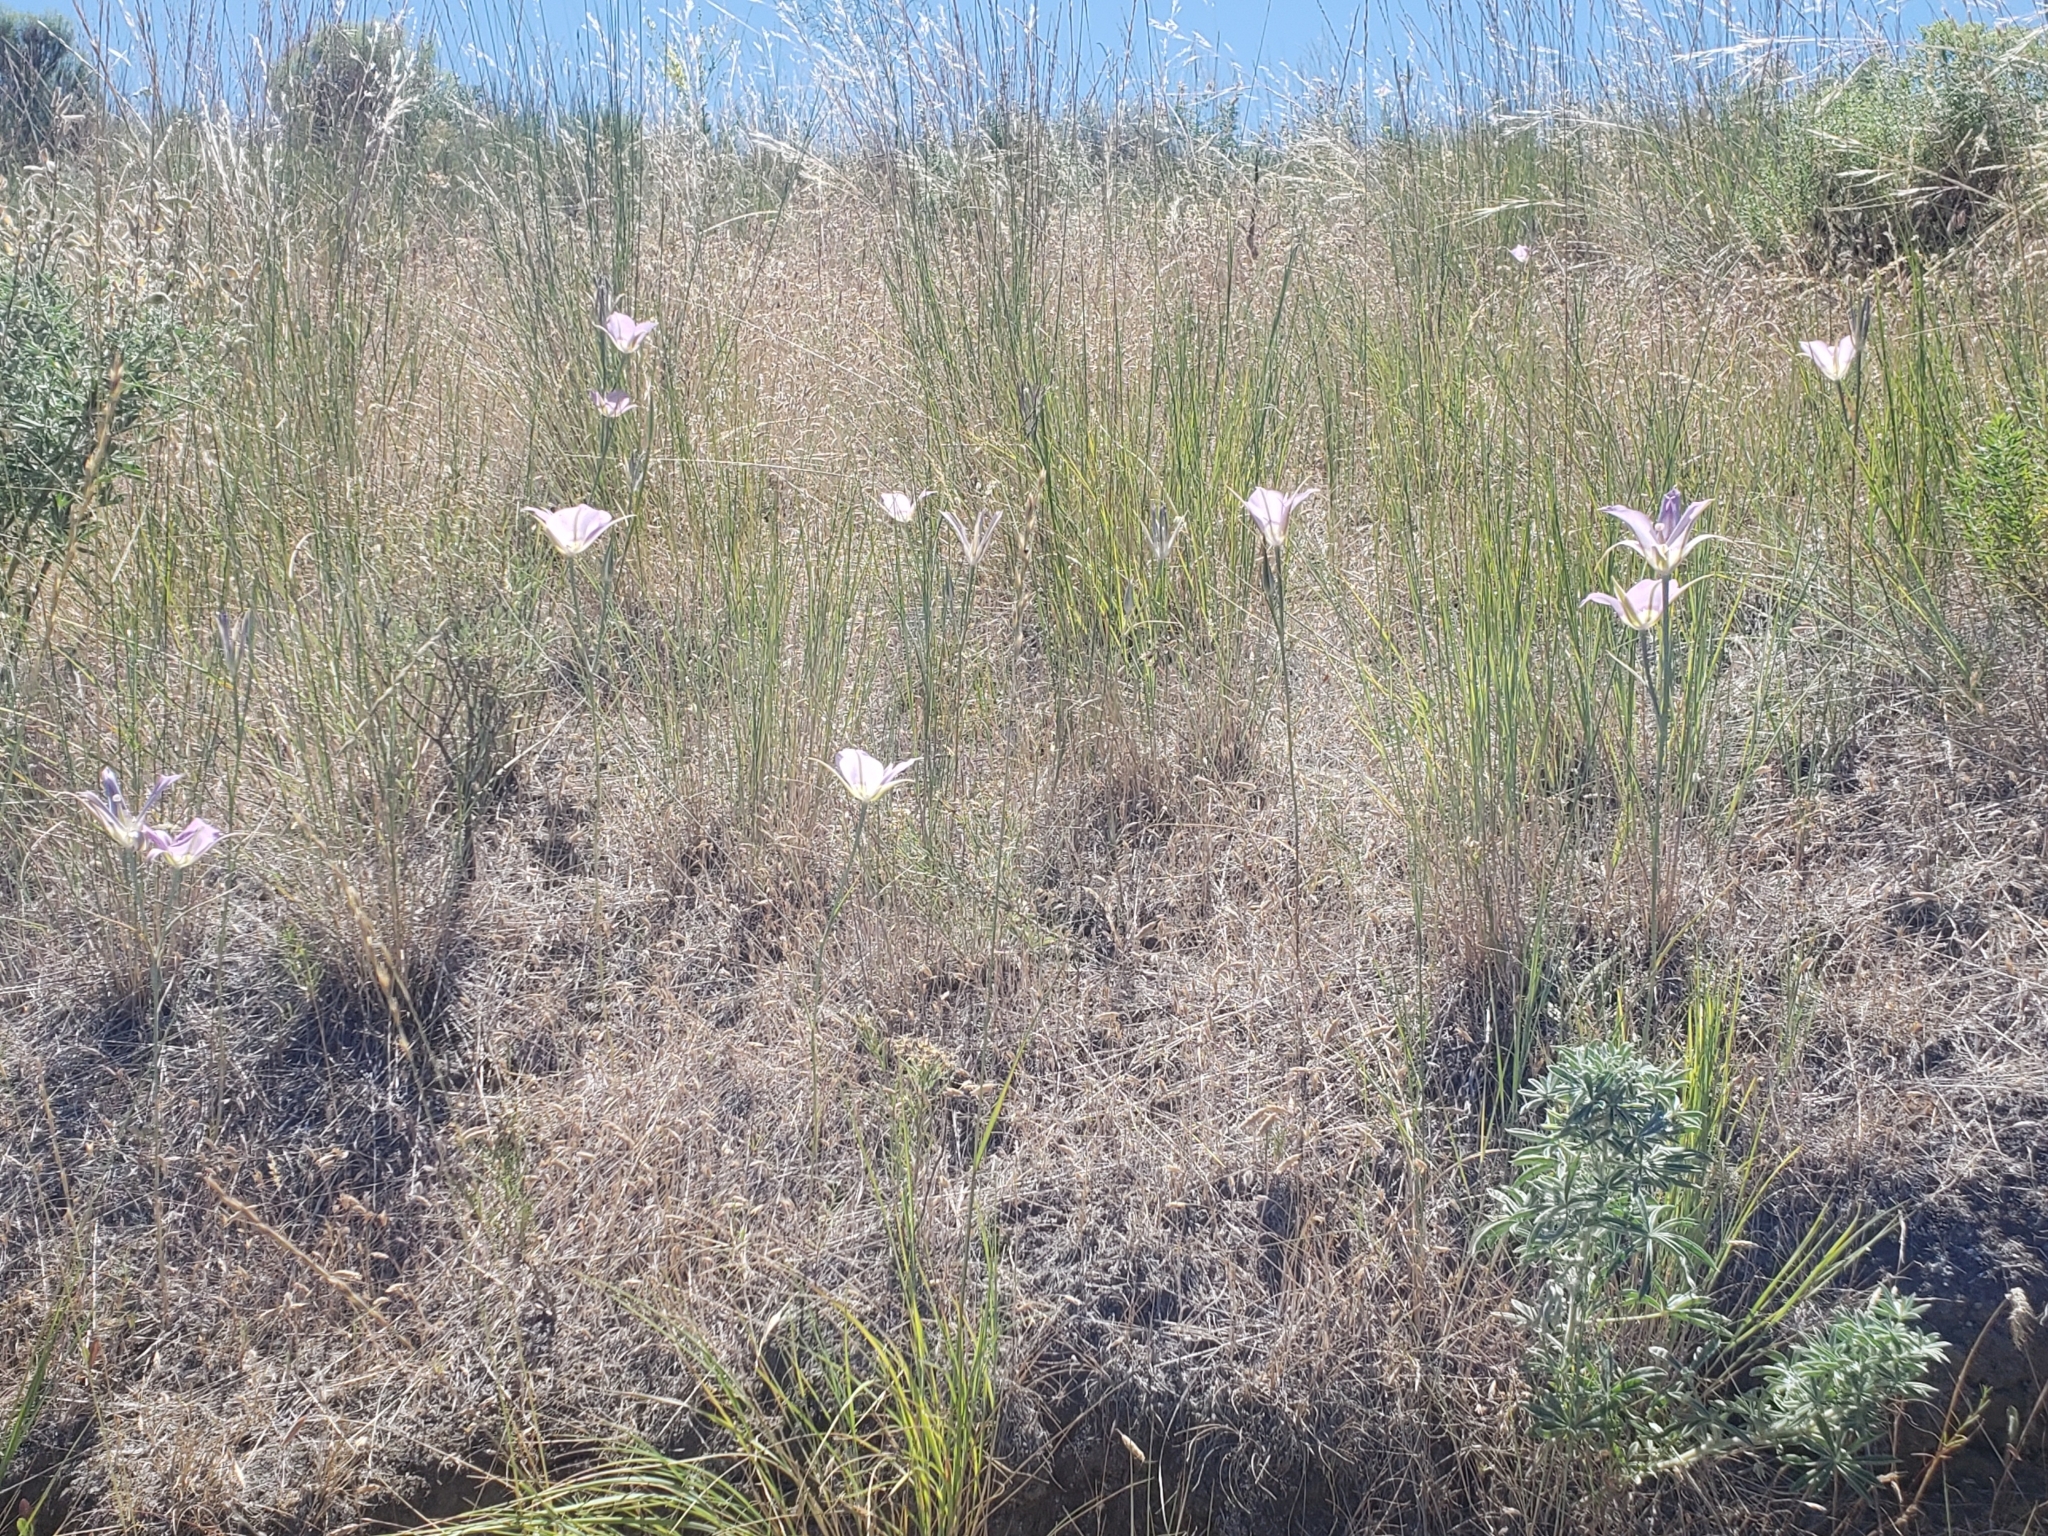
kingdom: Plantae
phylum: Tracheophyta
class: Liliopsida
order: Liliales
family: Liliaceae
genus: Calochortus
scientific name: Calochortus macrocarpus
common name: Green-band mariposa lily
